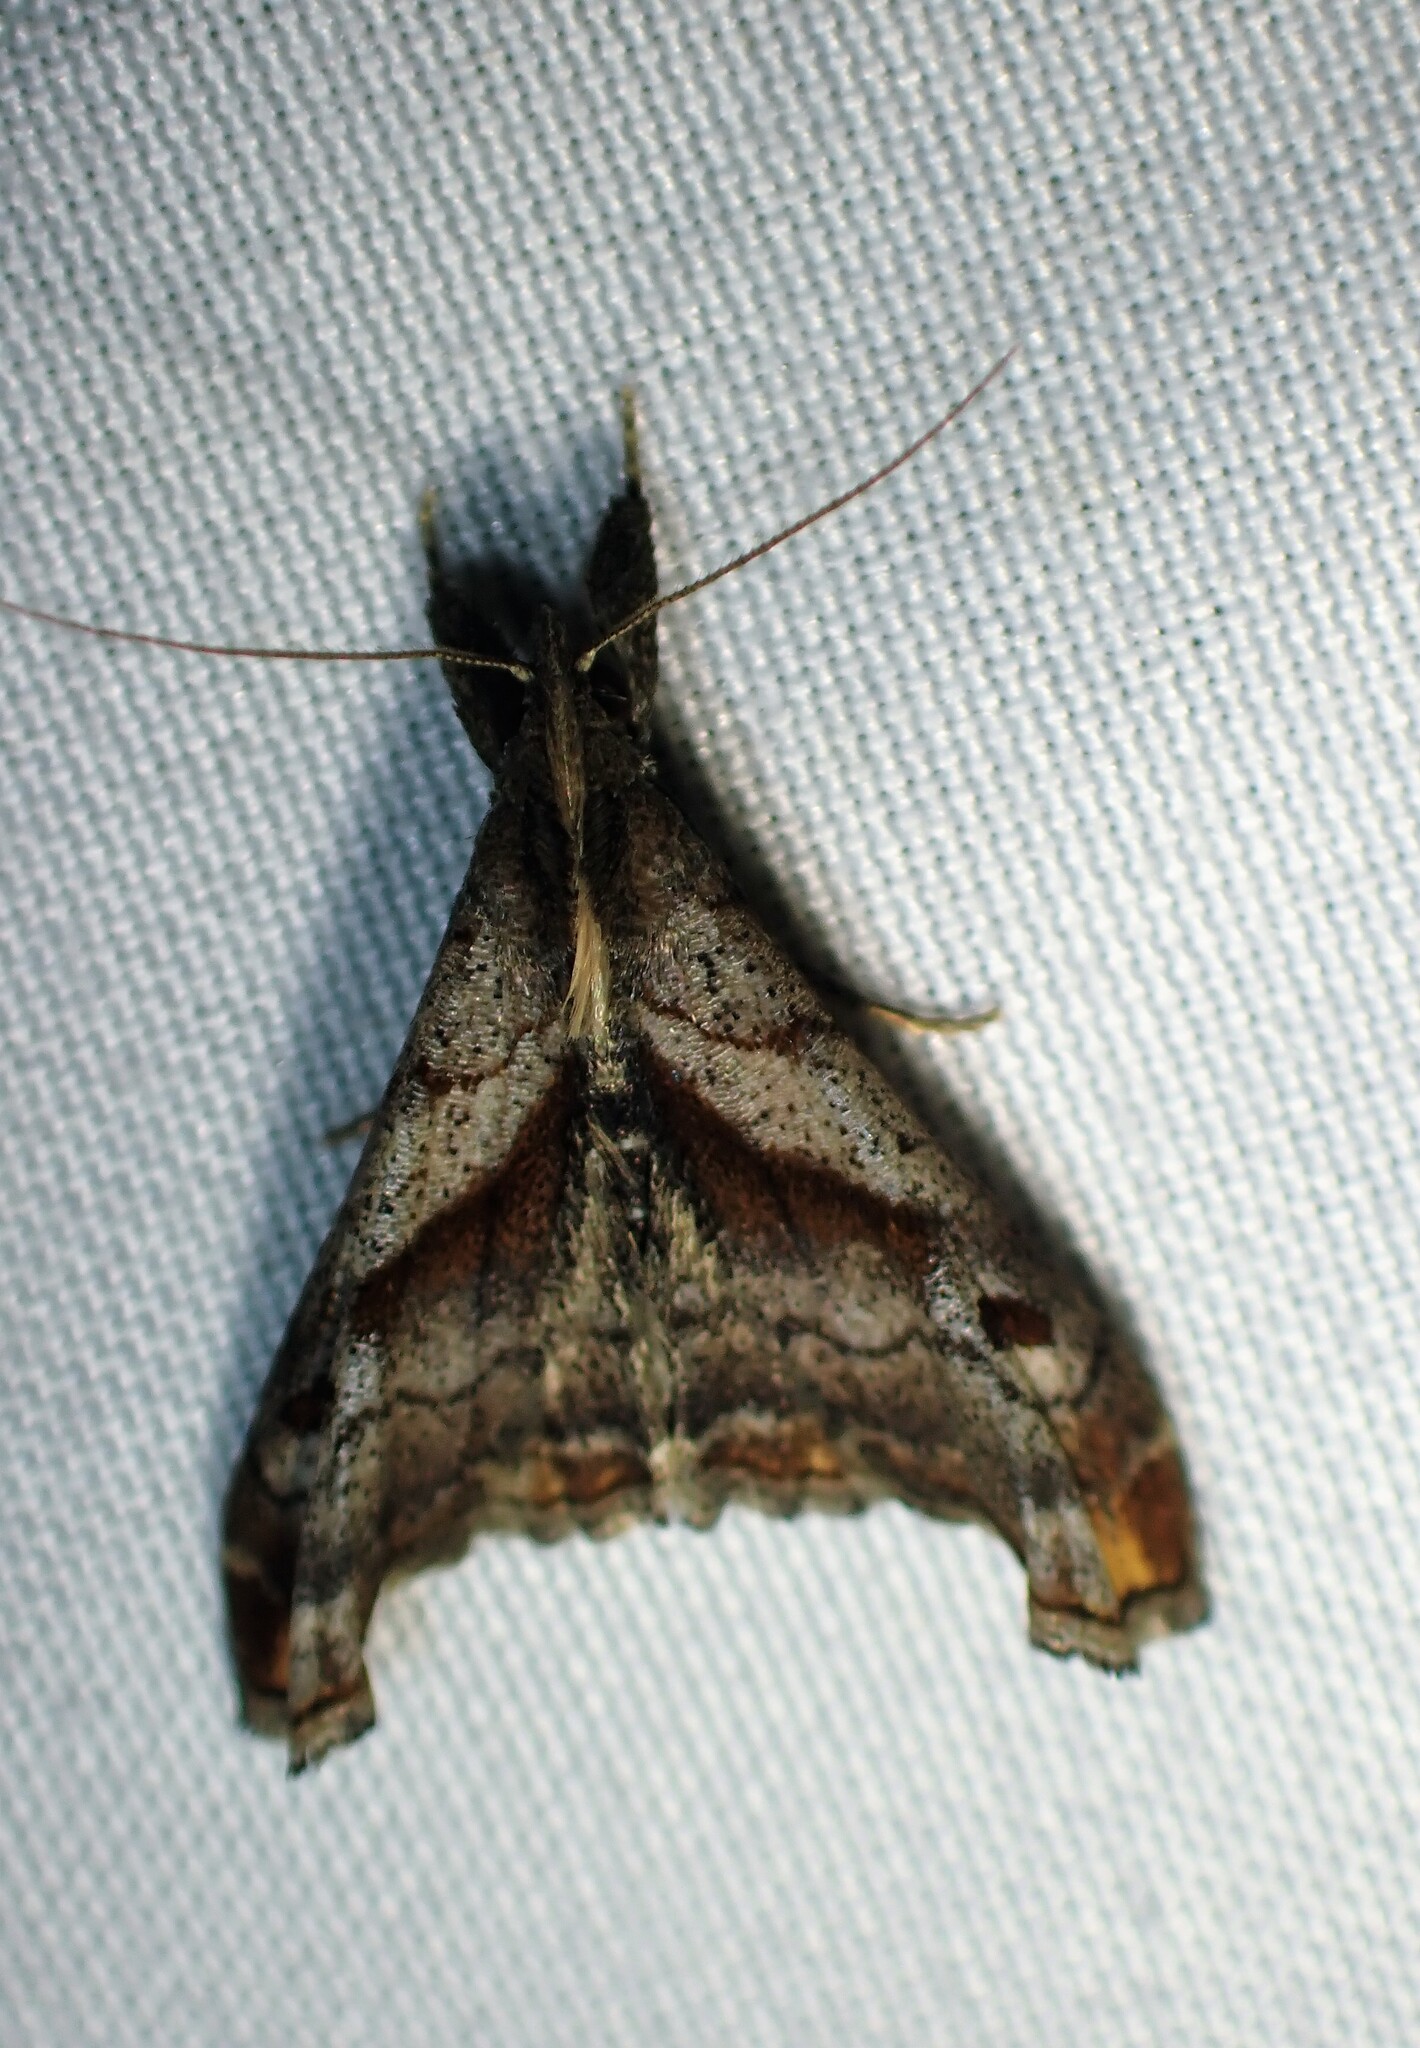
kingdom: Animalia
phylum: Arthropoda
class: Insecta
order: Lepidoptera
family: Erebidae
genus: Palthis
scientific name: Palthis angulalis
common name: Dark-spotted palthis moth
